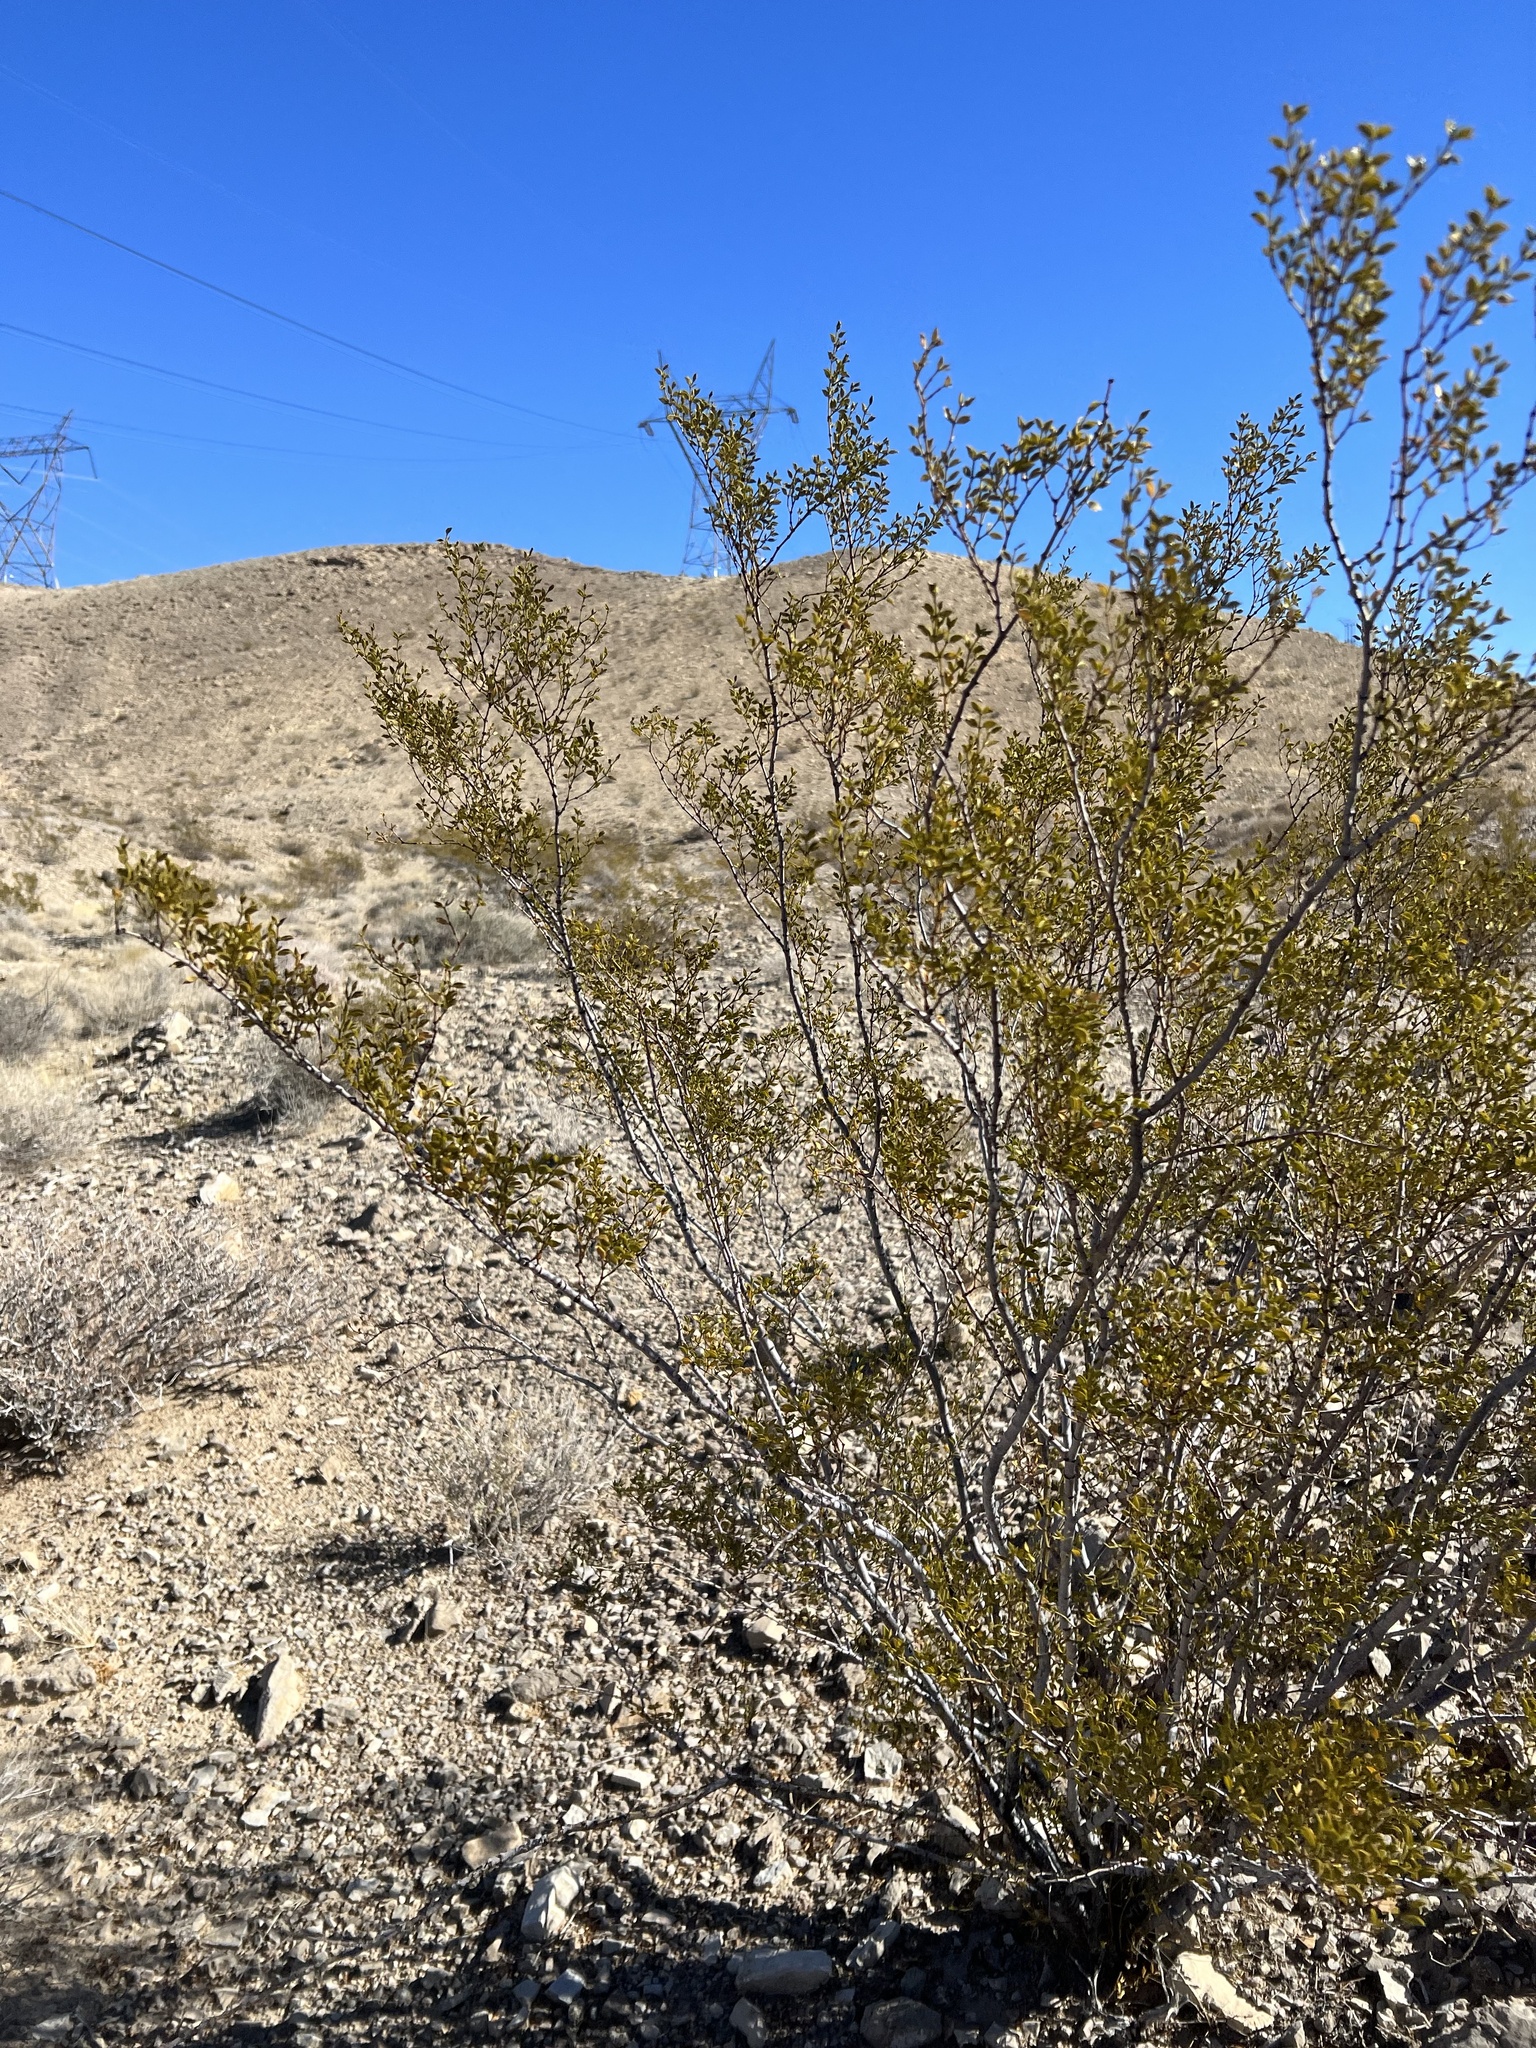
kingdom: Plantae
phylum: Tracheophyta
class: Magnoliopsida
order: Zygophyllales
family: Zygophyllaceae
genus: Larrea
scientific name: Larrea tridentata
